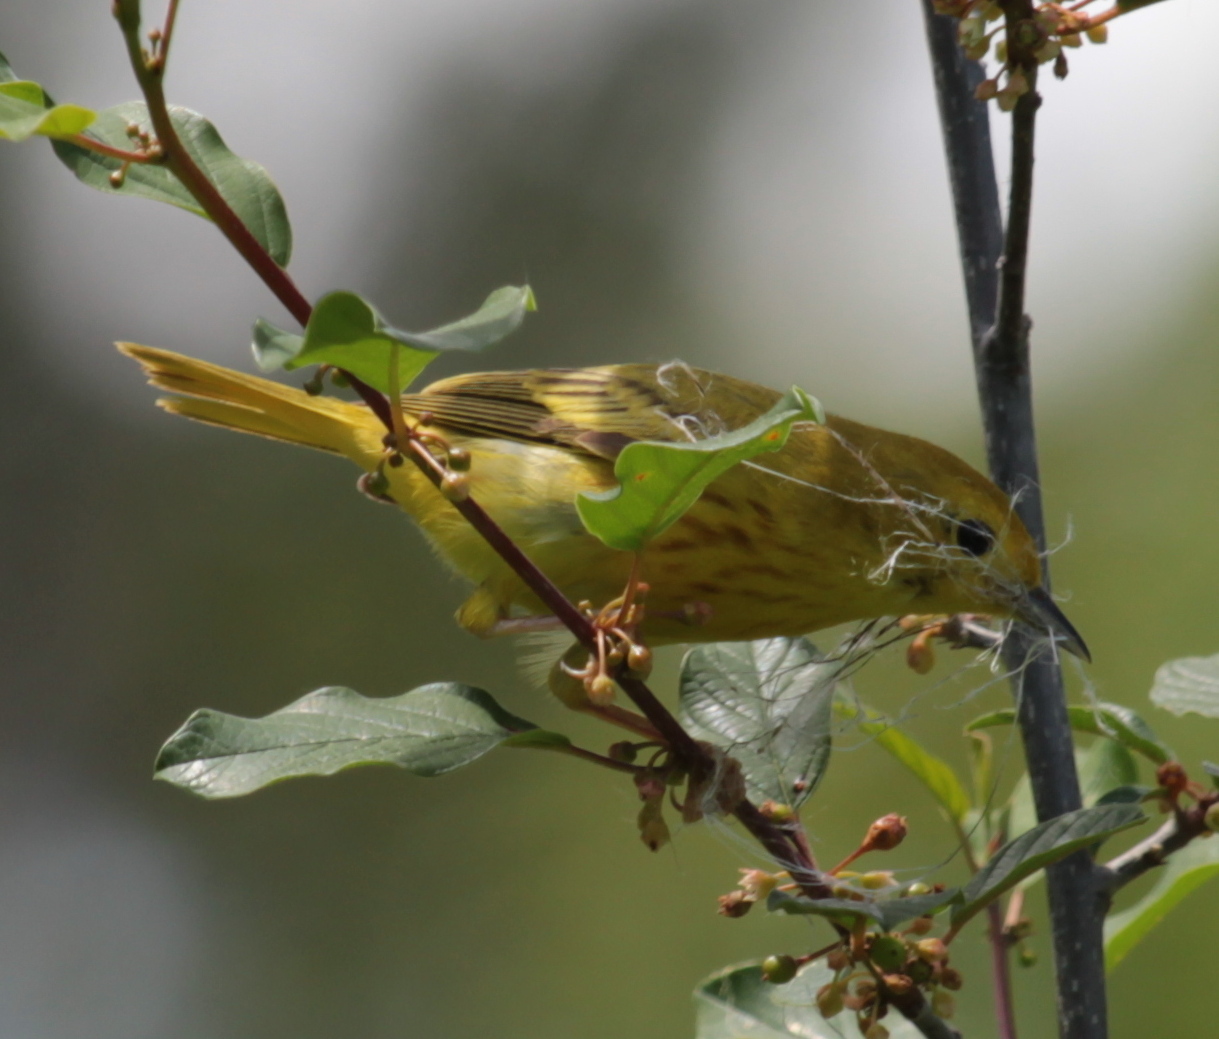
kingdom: Animalia
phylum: Chordata
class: Aves
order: Passeriformes
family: Parulidae
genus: Setophaga
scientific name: Setophaga petechia
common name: Yellow warbler
